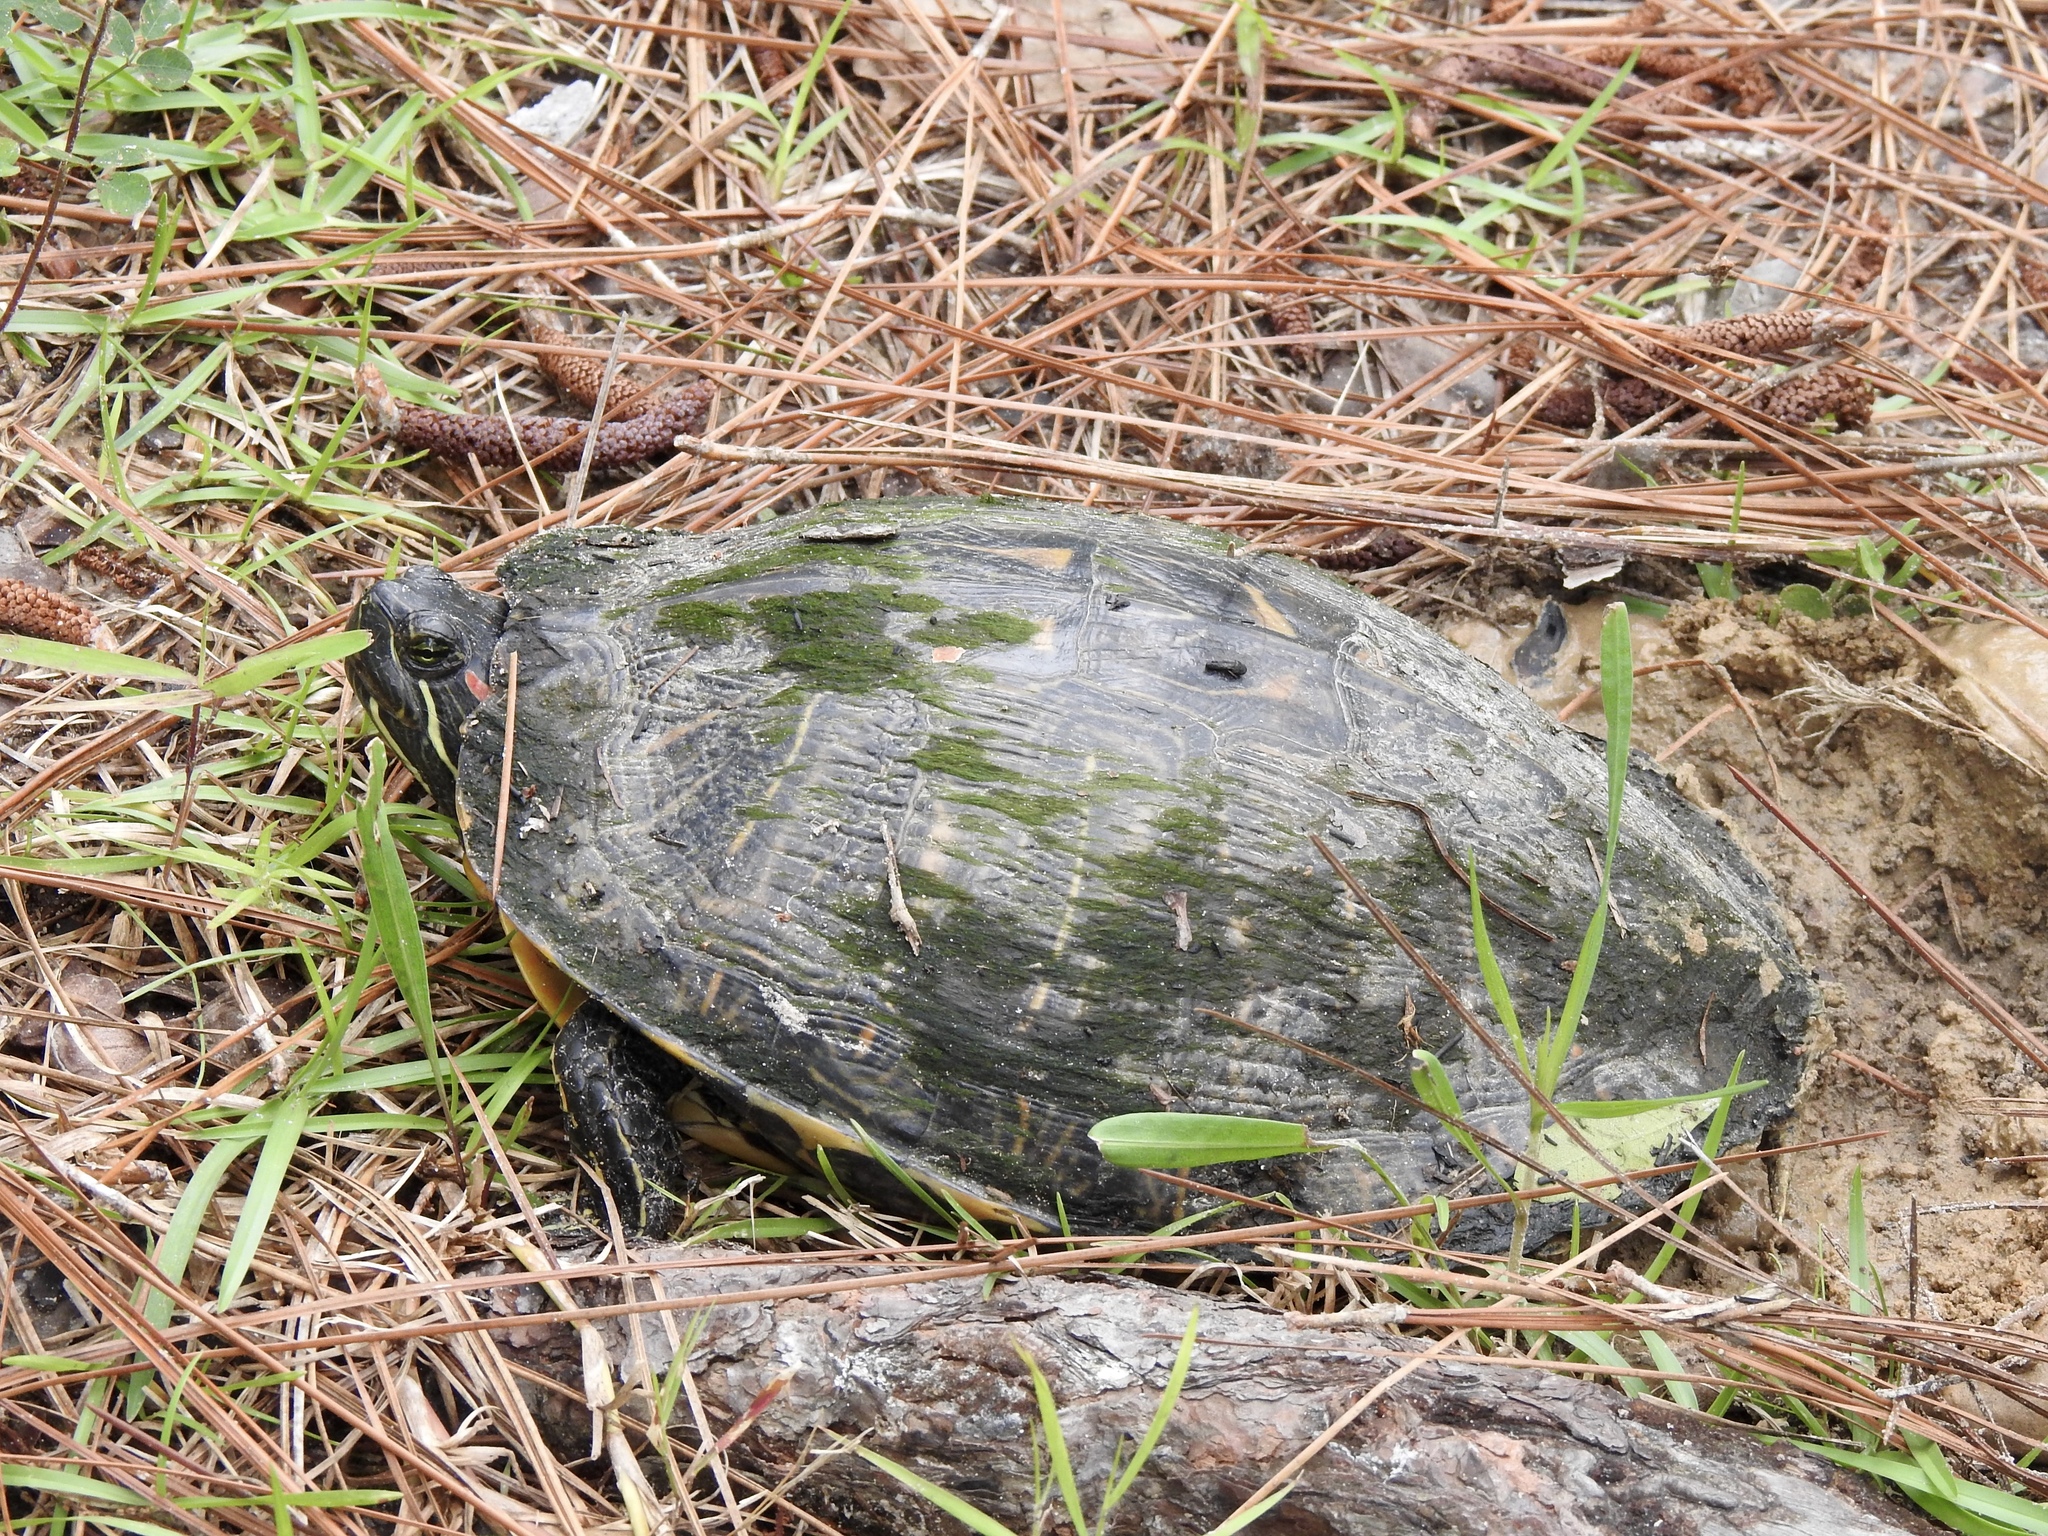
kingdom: Animalia
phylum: Chordata
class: Testudines
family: Emydidae
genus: Trachemys
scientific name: Trachemys scripta
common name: Slider
